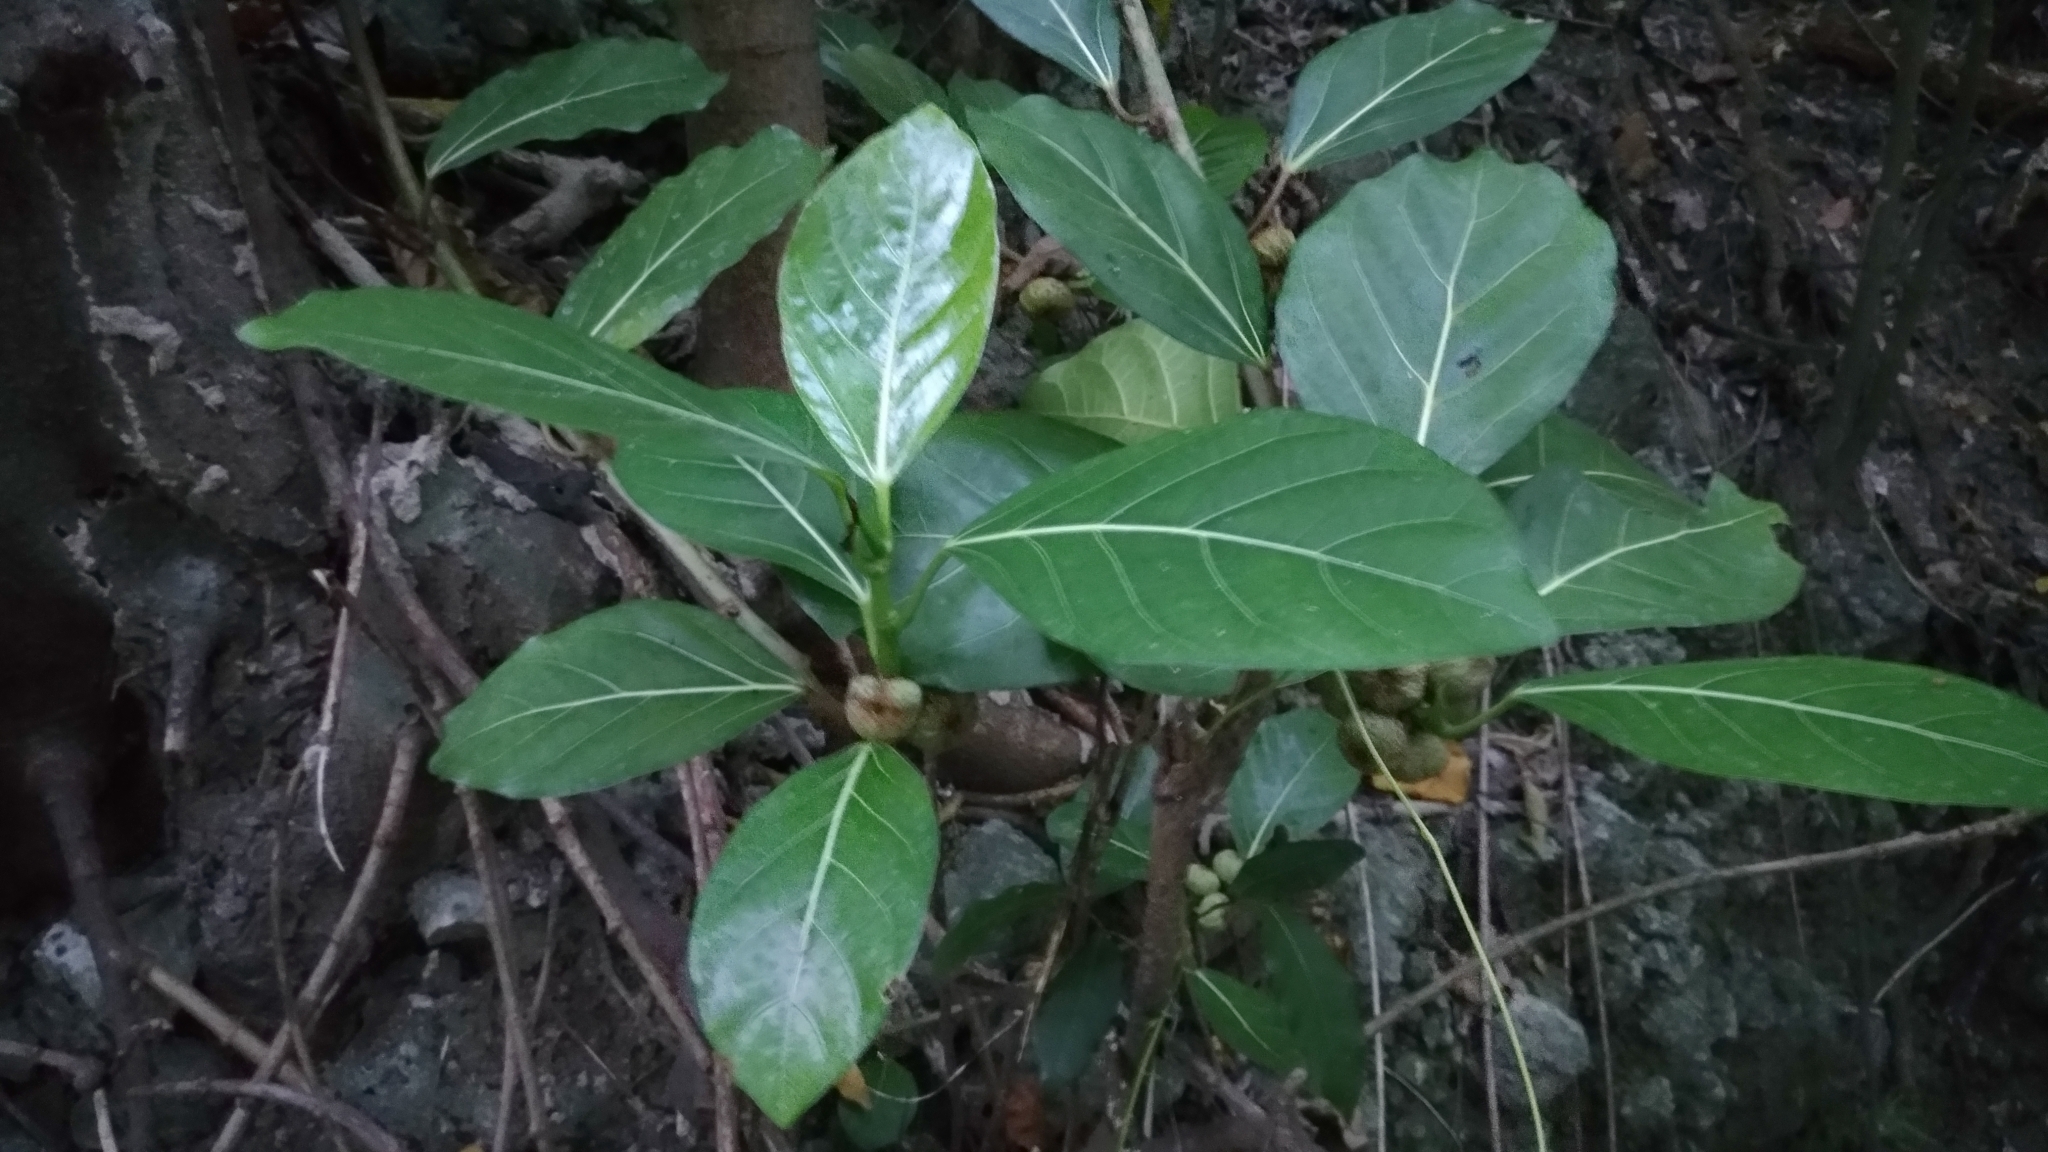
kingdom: Plantae
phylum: Tracheophyta
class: Magnoliopsida
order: Rosales
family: Moraceae
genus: Ficus
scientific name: Ficus septica
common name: Septic fig
